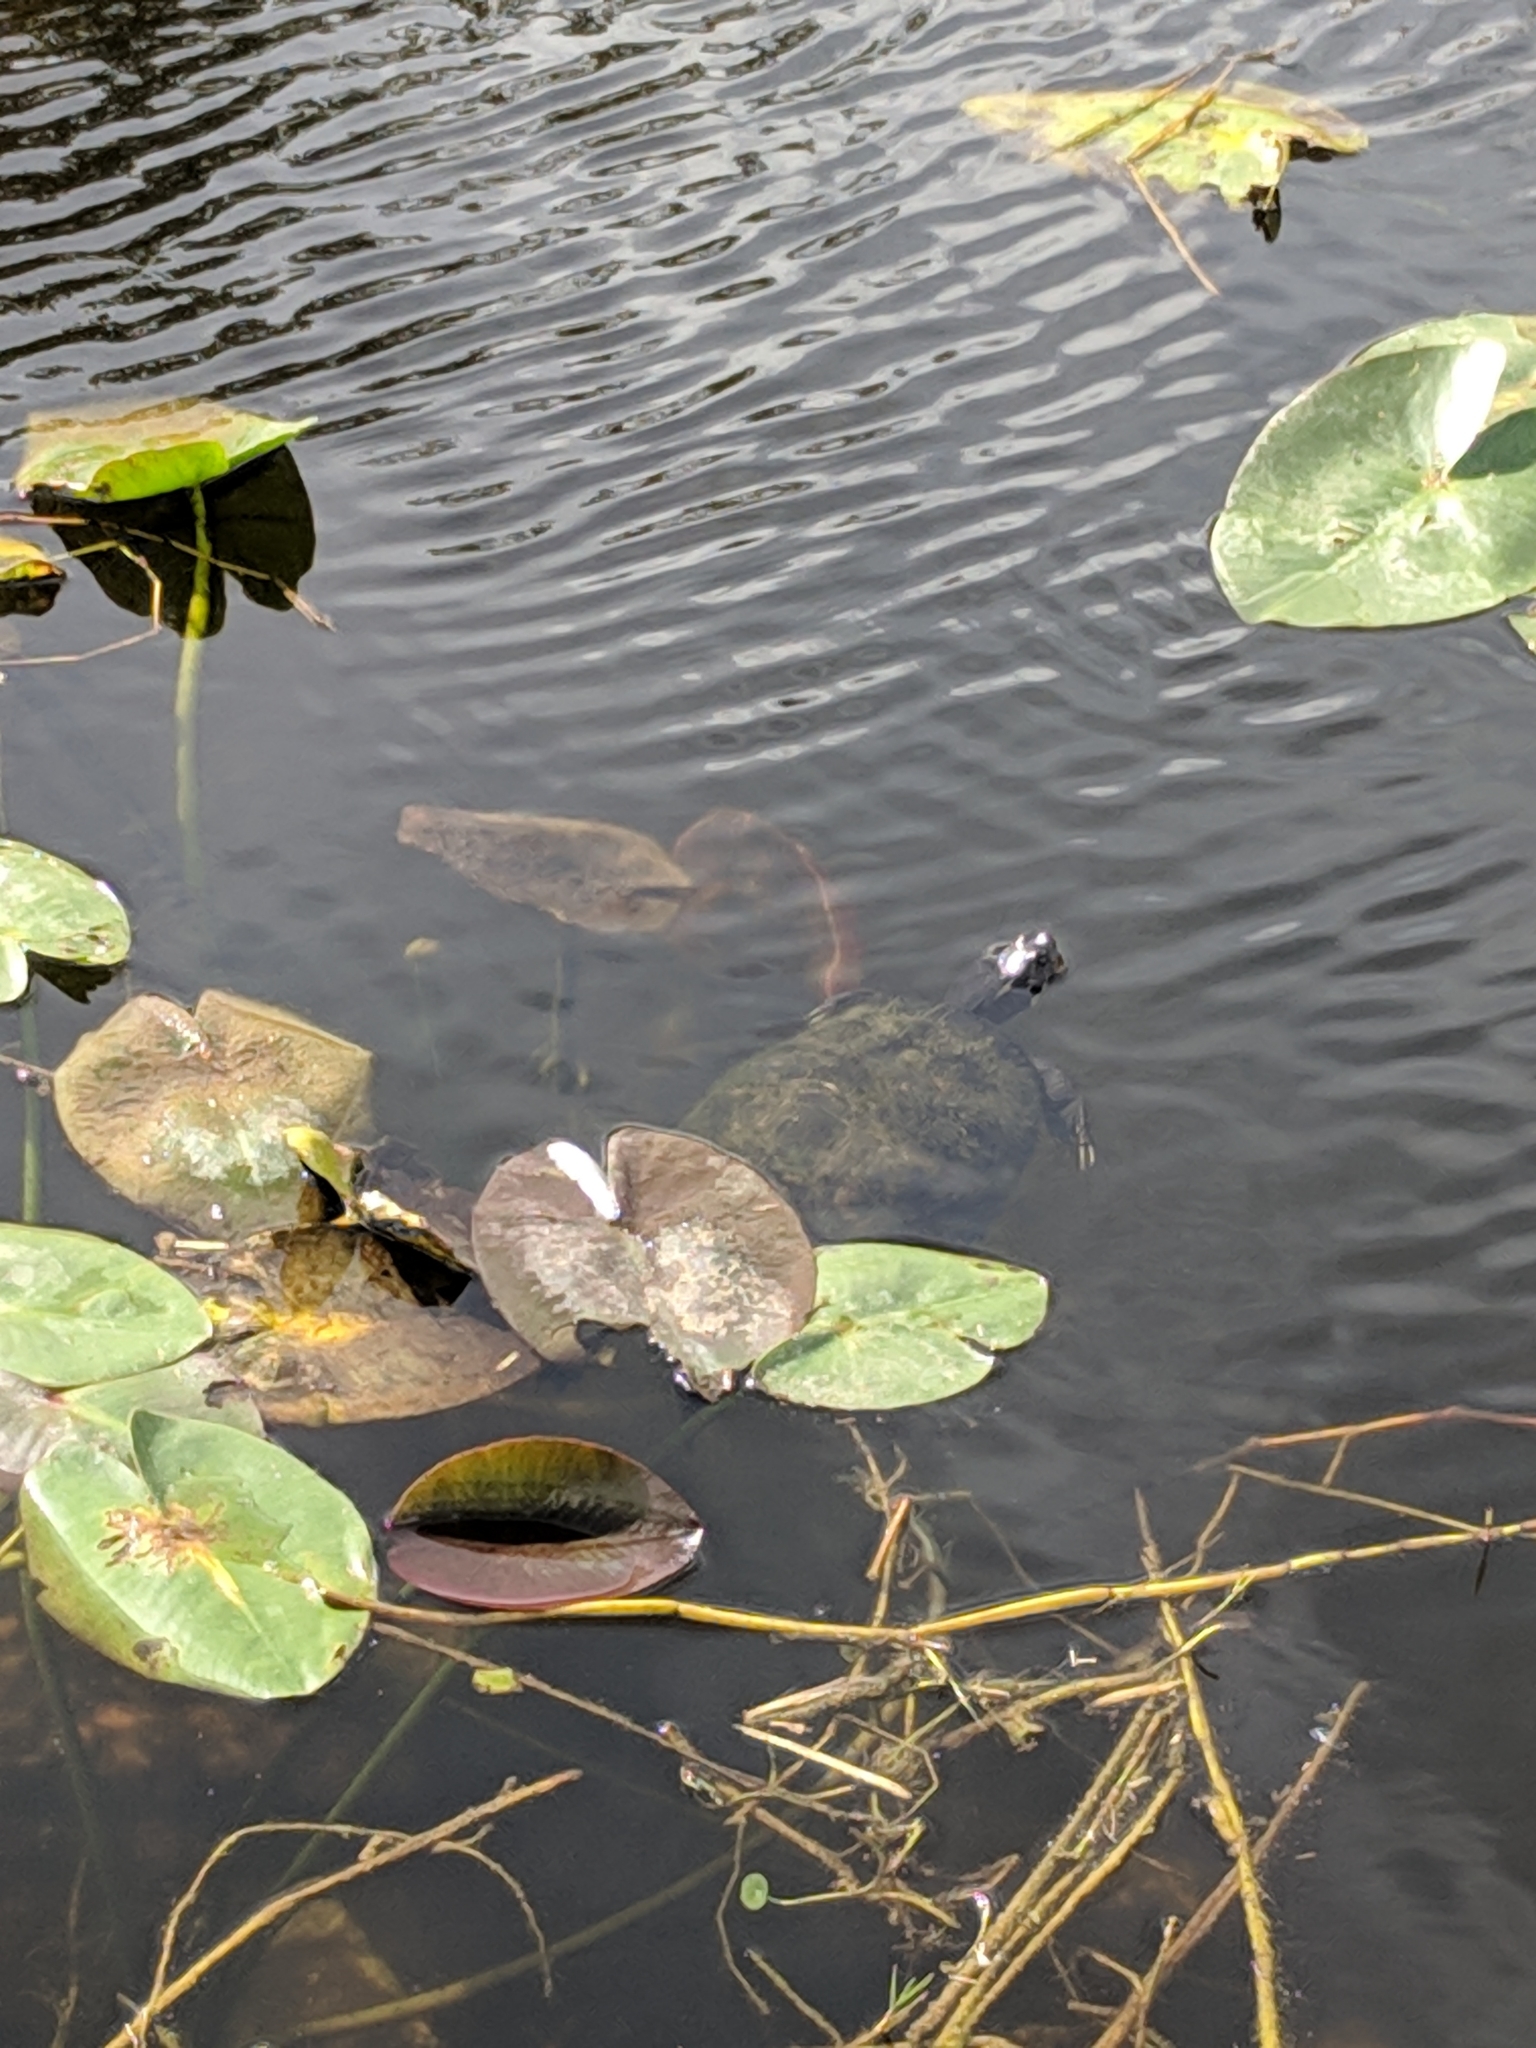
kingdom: Animalia
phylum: Chordata
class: Testudines
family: Emydidae
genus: Pseudemys
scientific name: Pseudemys
